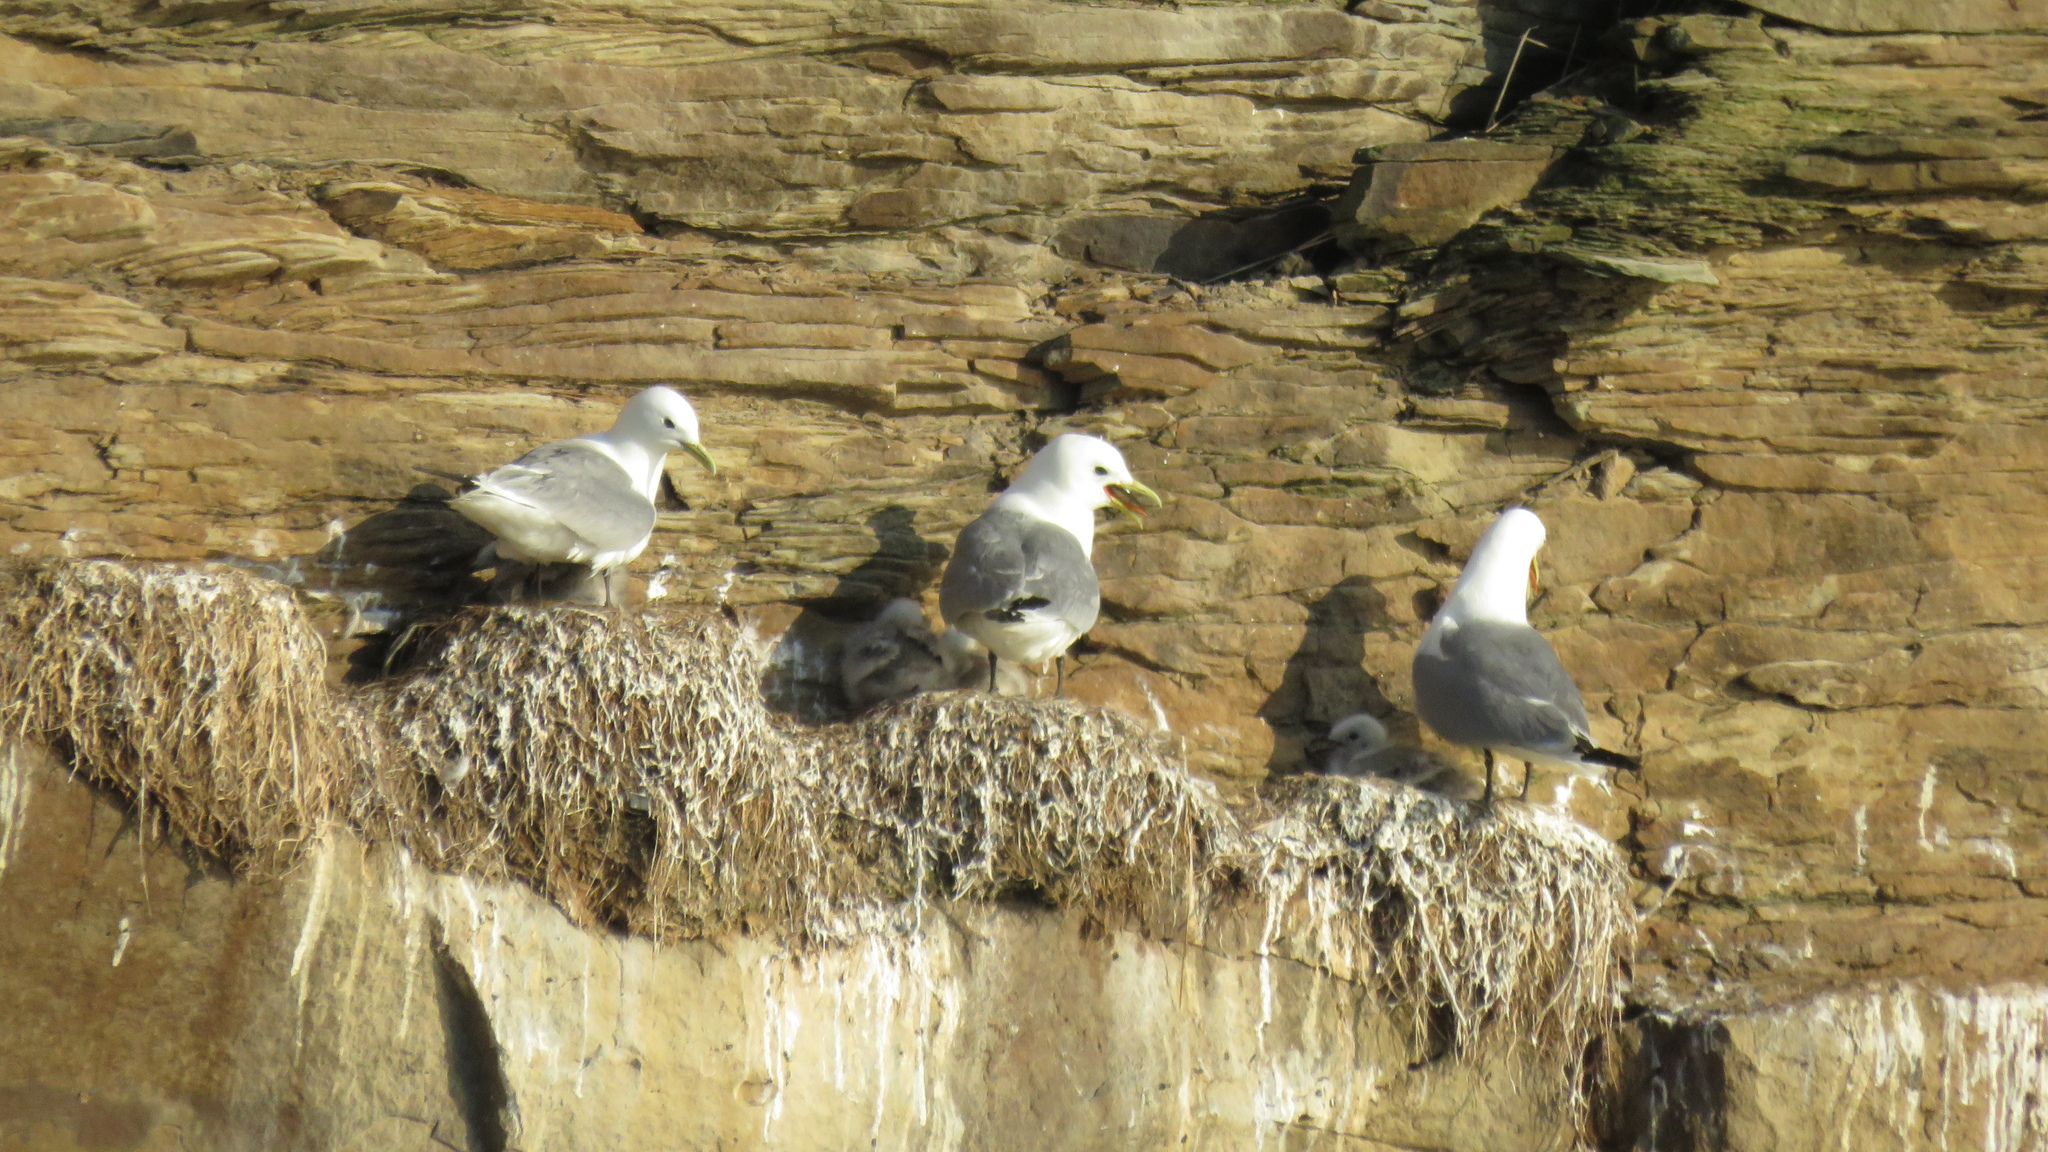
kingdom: Animalia
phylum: Chordata
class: Aves
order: Charadriiformes
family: Laridae
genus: Rissa
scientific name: Rissa tridactyla
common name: Black-legged kittiwake
